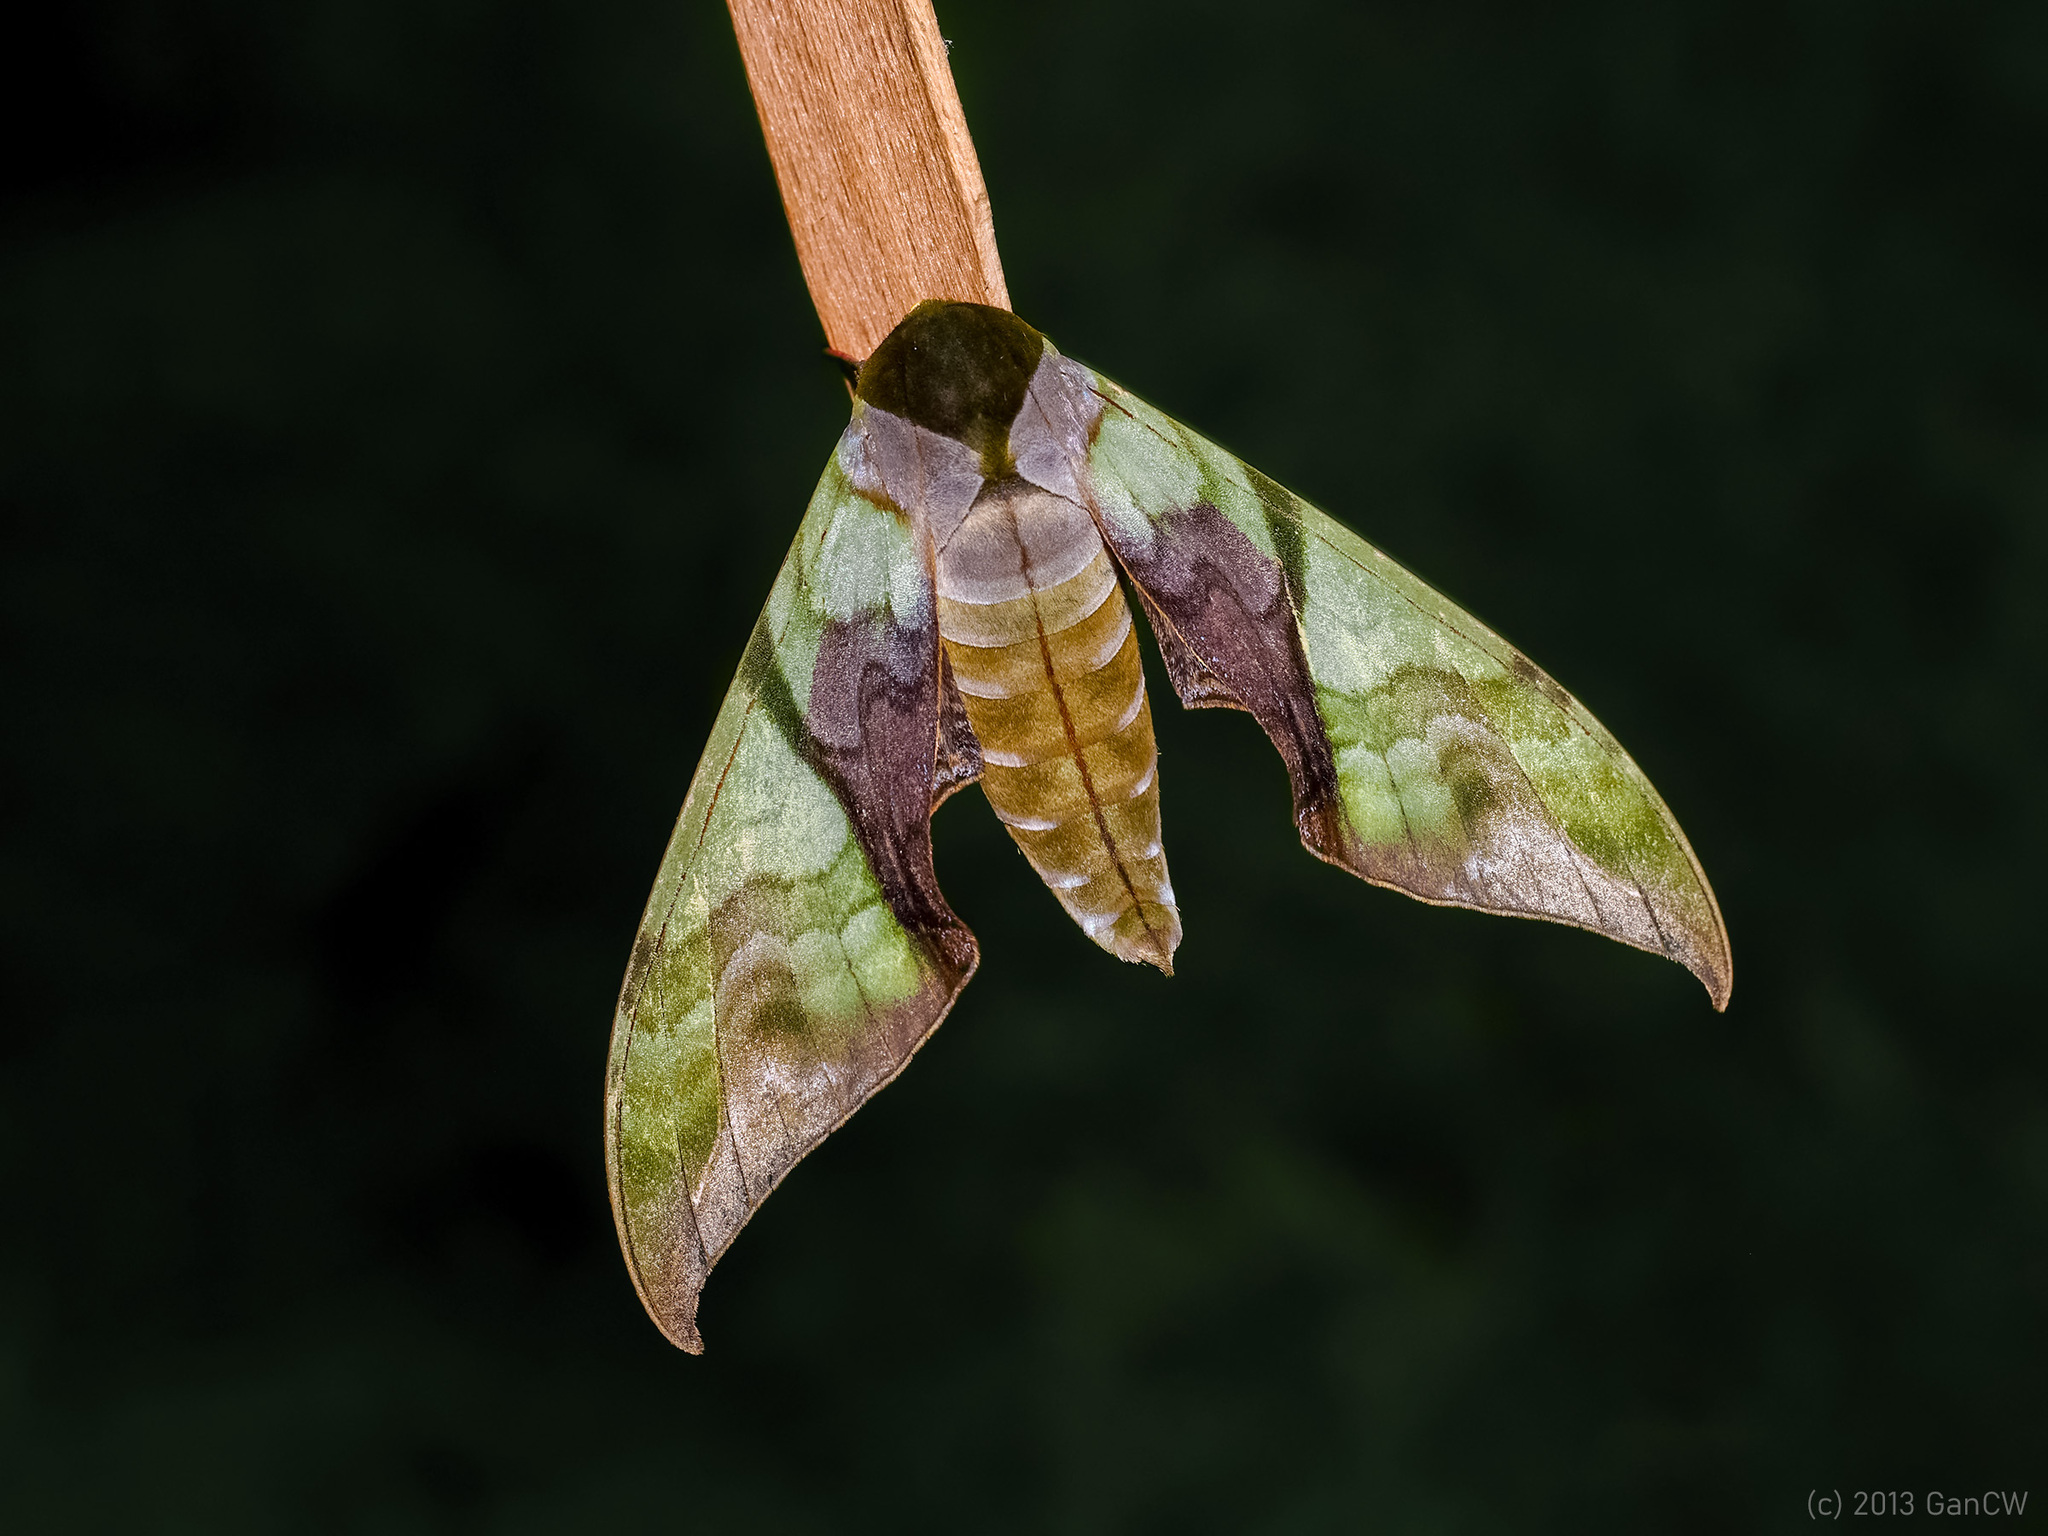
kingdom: Animalia
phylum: Arthropoda
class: Insecta
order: Lepidoptera
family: Sphingidae
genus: Callambulyx
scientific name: Callambulyx amanda
